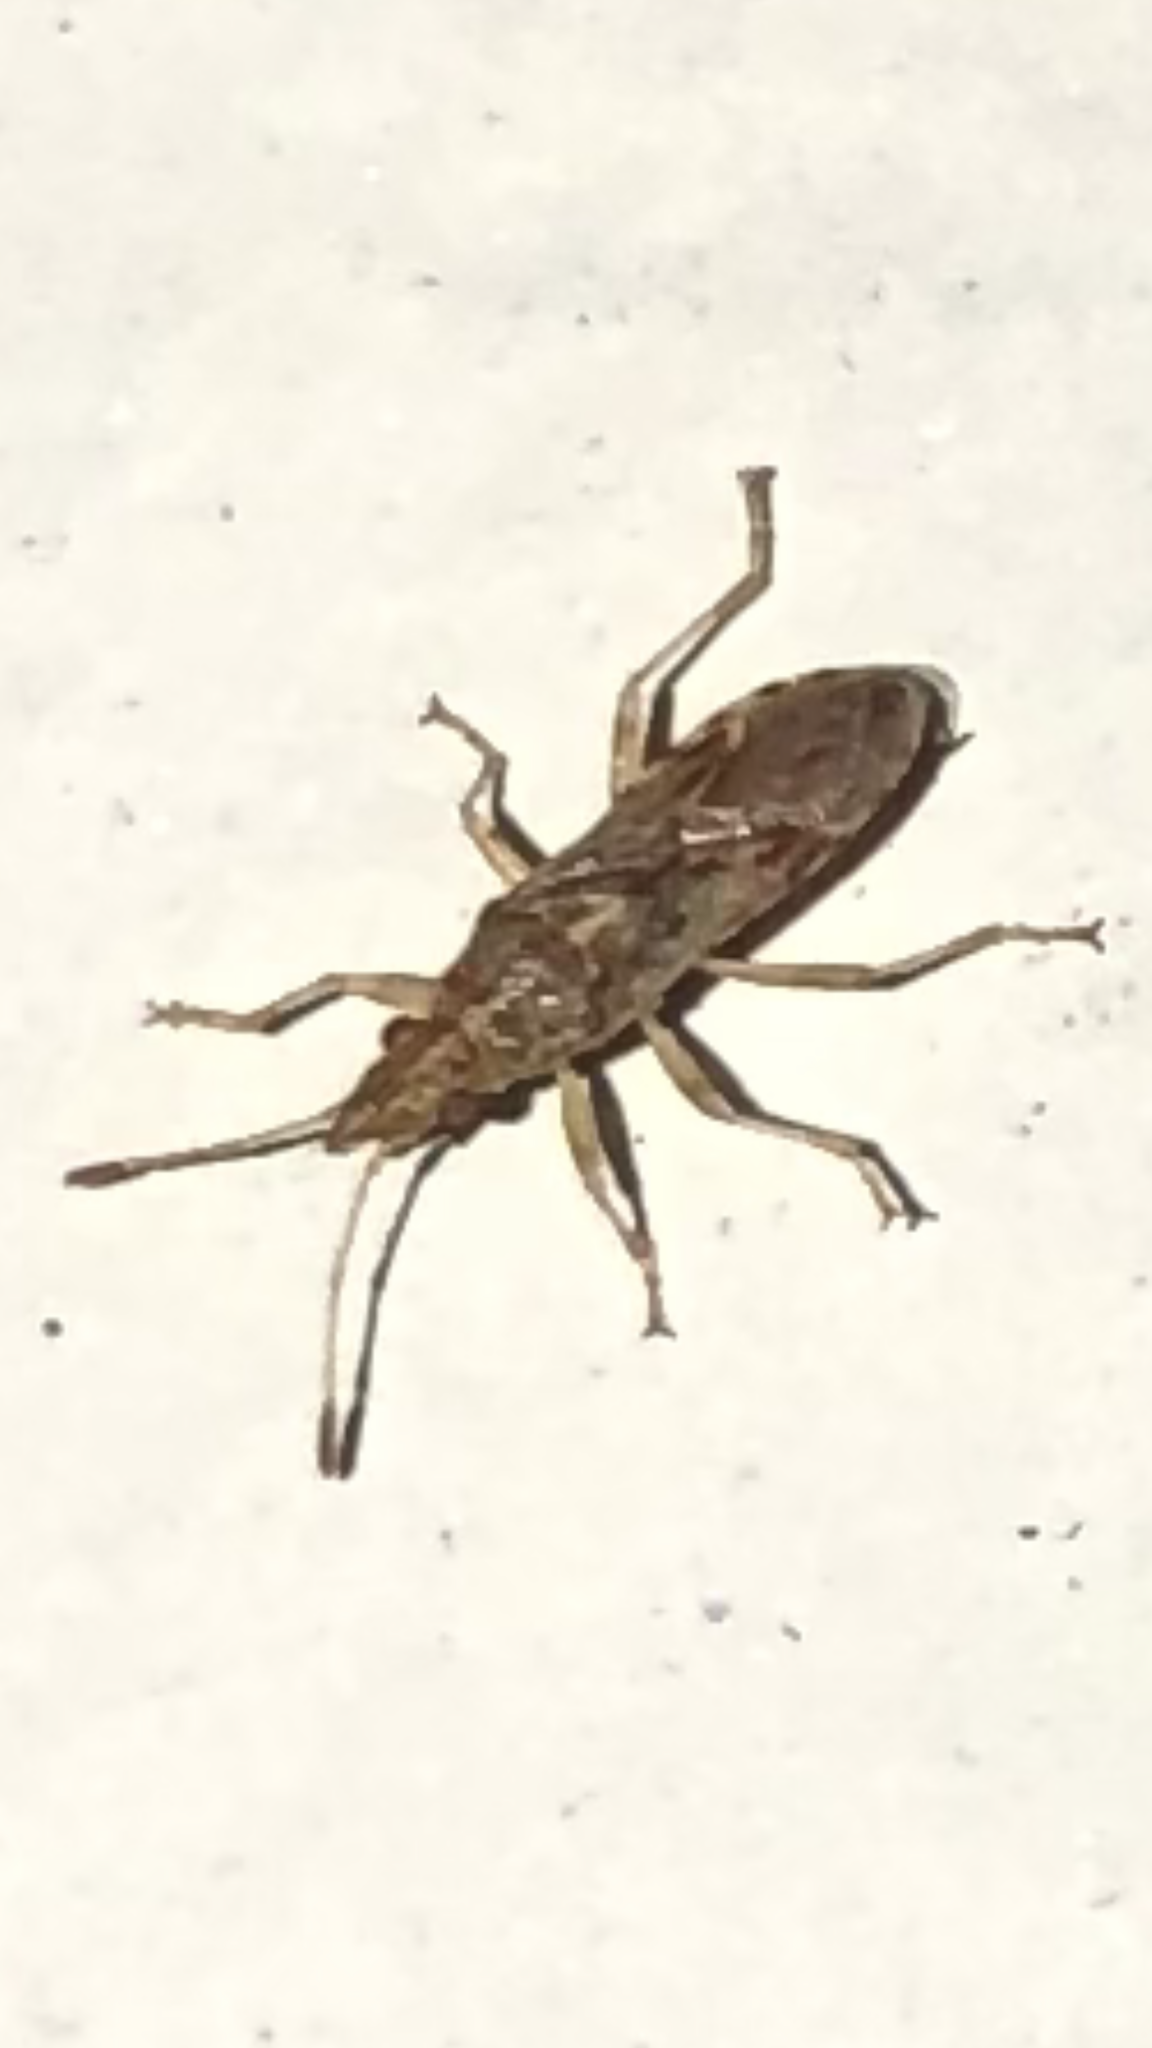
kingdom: Animalia
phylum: Arthropoda
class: Insecta
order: Hemiptera
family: Lygaeidae
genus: Belonochilus
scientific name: Belonochilus numenius
